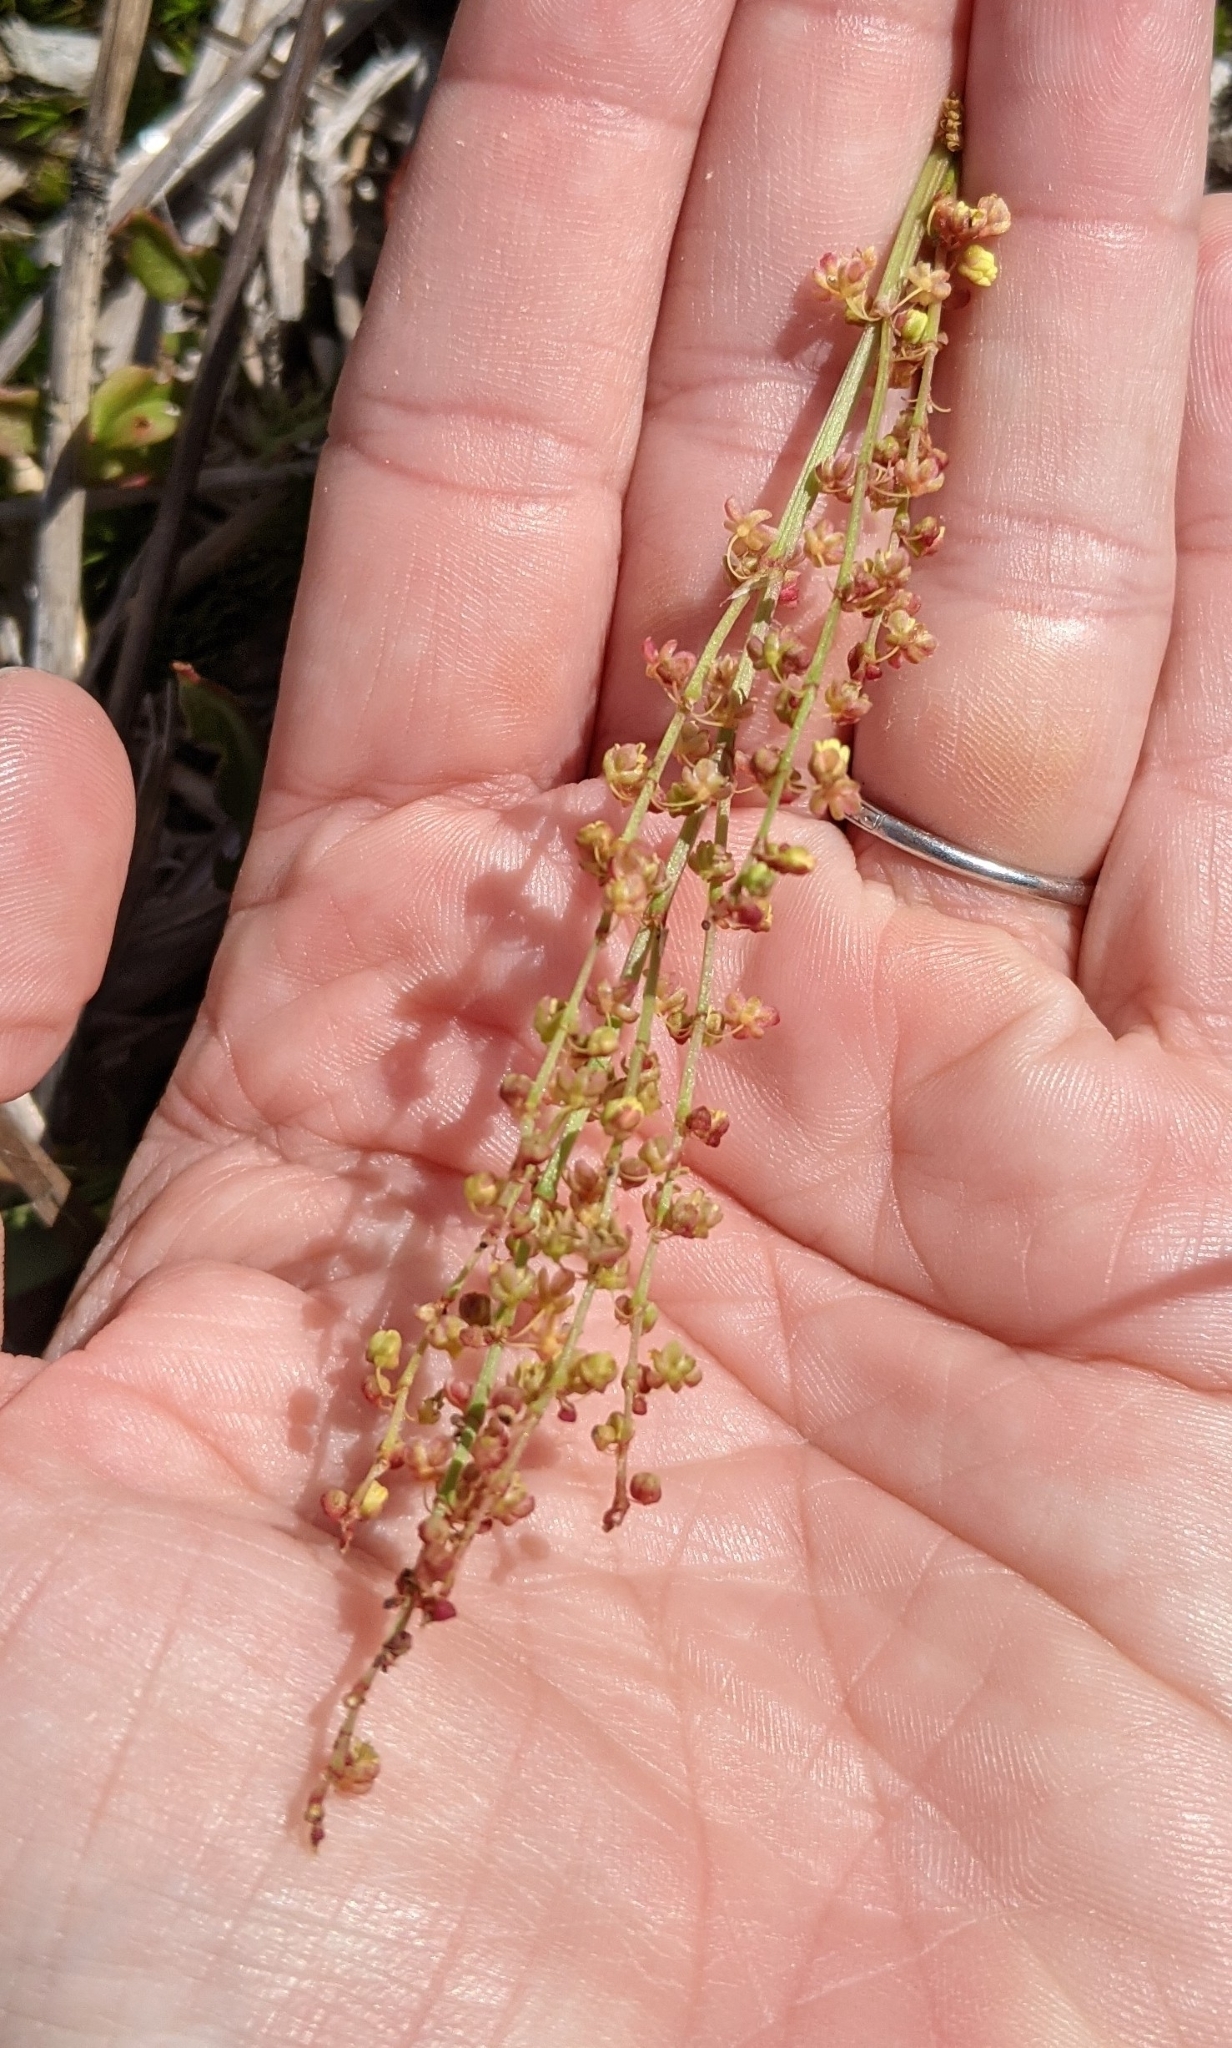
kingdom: Plantae
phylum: Tracheophyta
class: Magnoliopsida
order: Caryophyllales
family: Polygonaceae
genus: Rumex
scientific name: Rumex acetosella
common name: Common sheep sorrel
